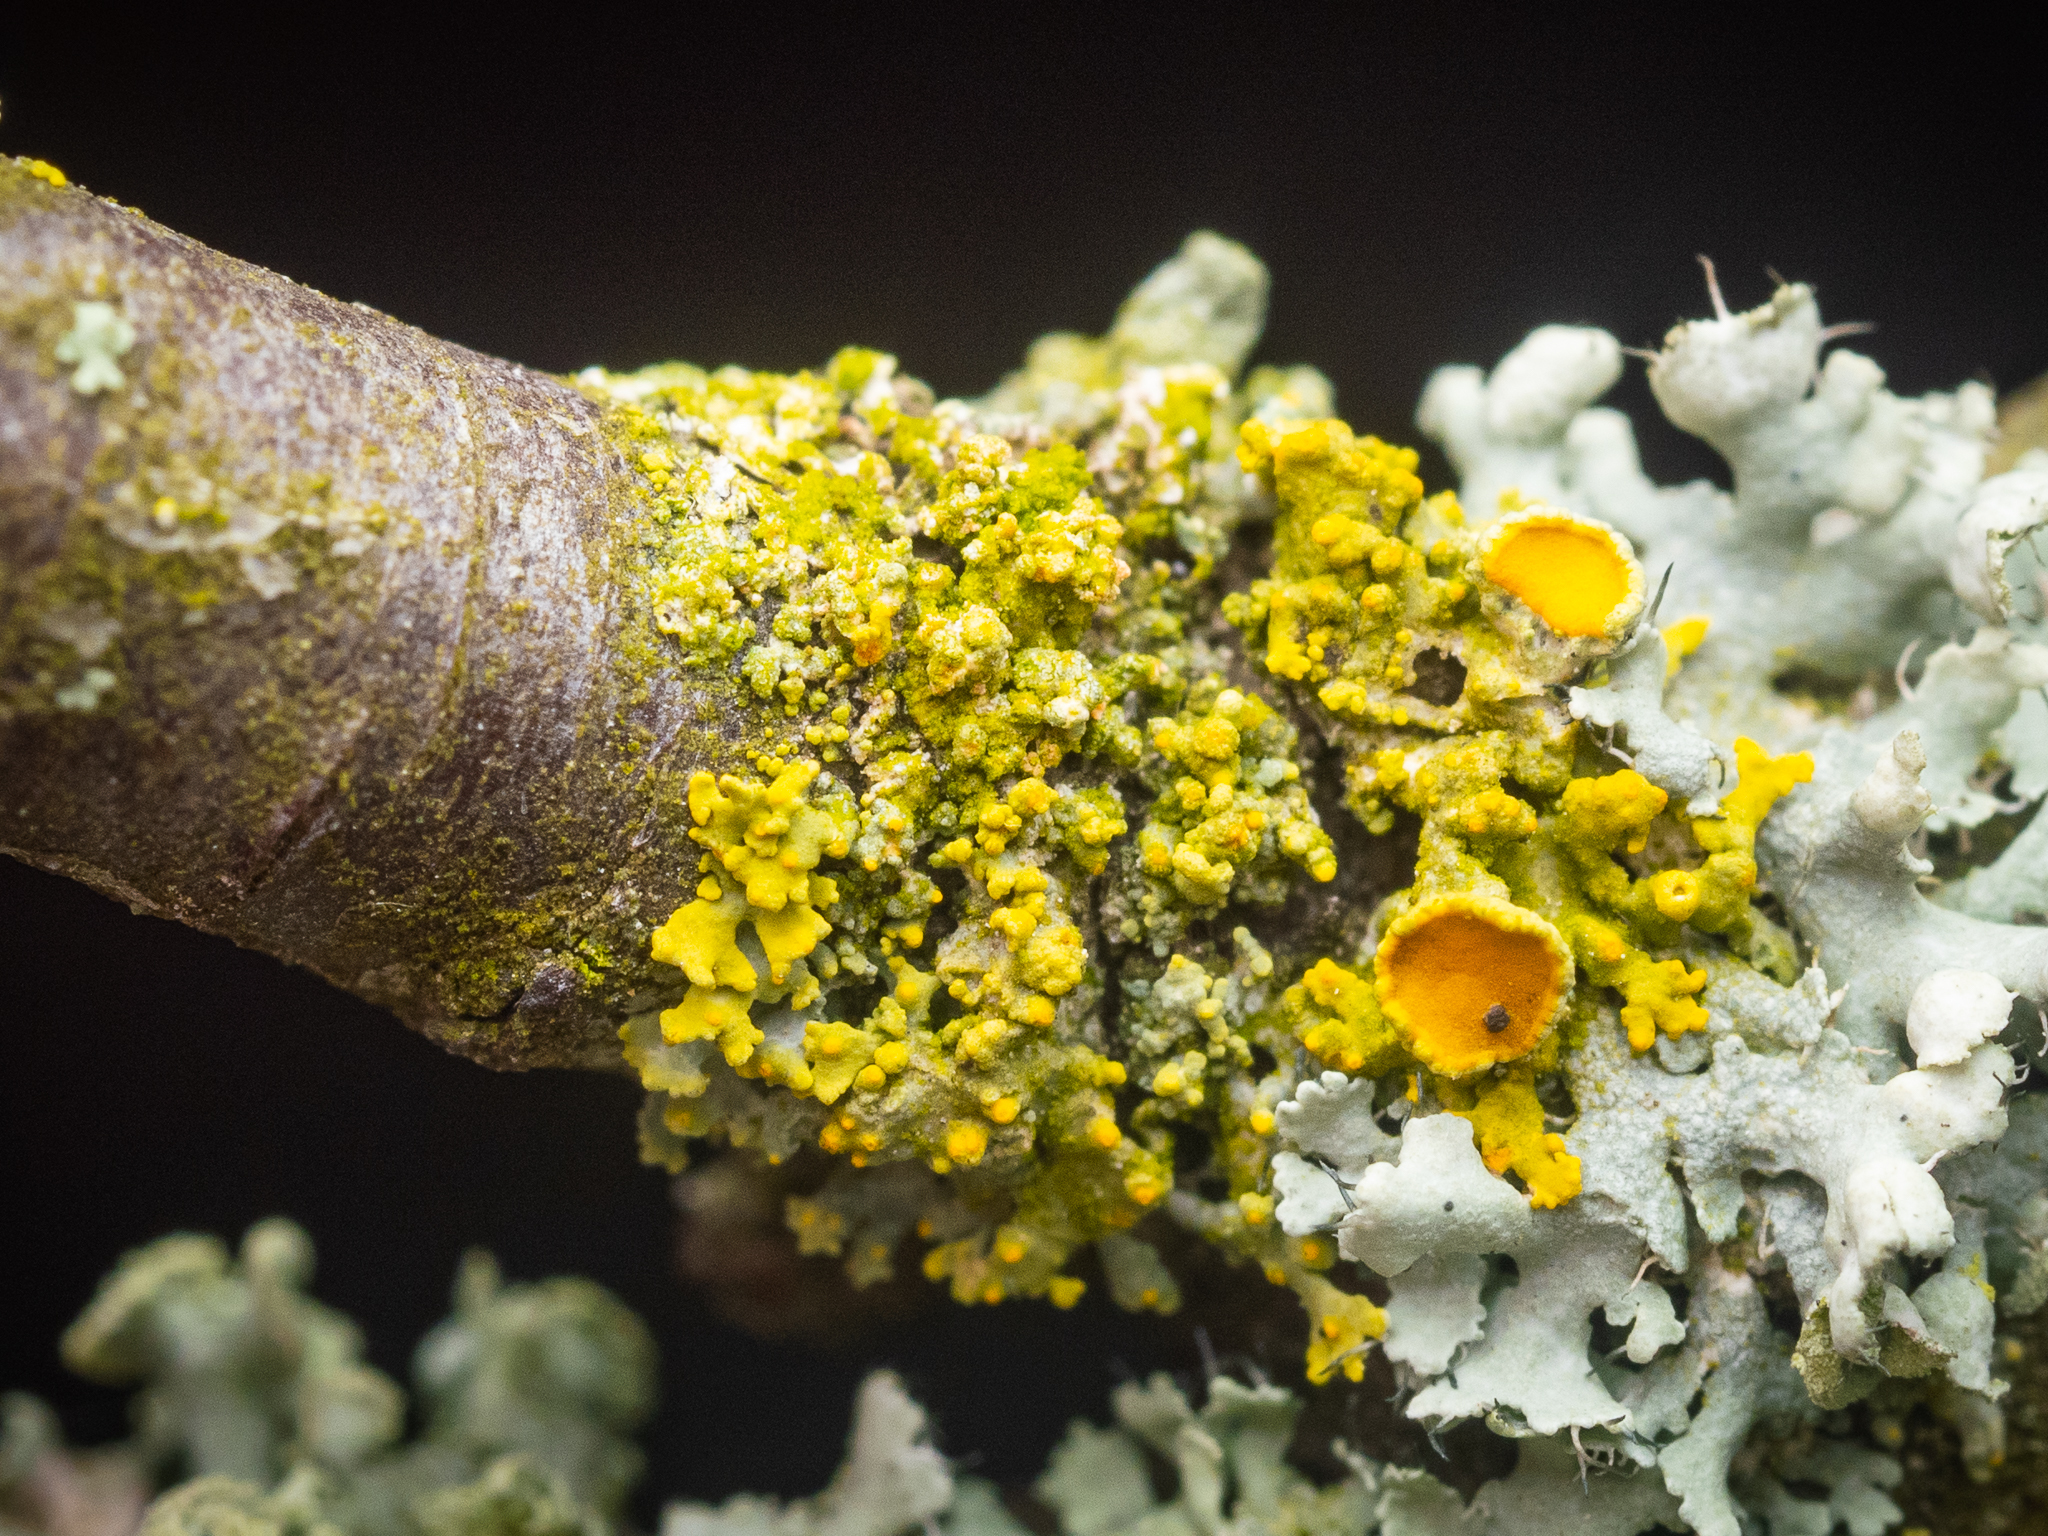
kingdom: Fungi
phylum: Ascomycota
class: Lecanoromycetes
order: Teloschistales
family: Teloschistaceae
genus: Polycauliona
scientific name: Polycauliona polycarpa
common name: Pin-cushion sunburst lichen
